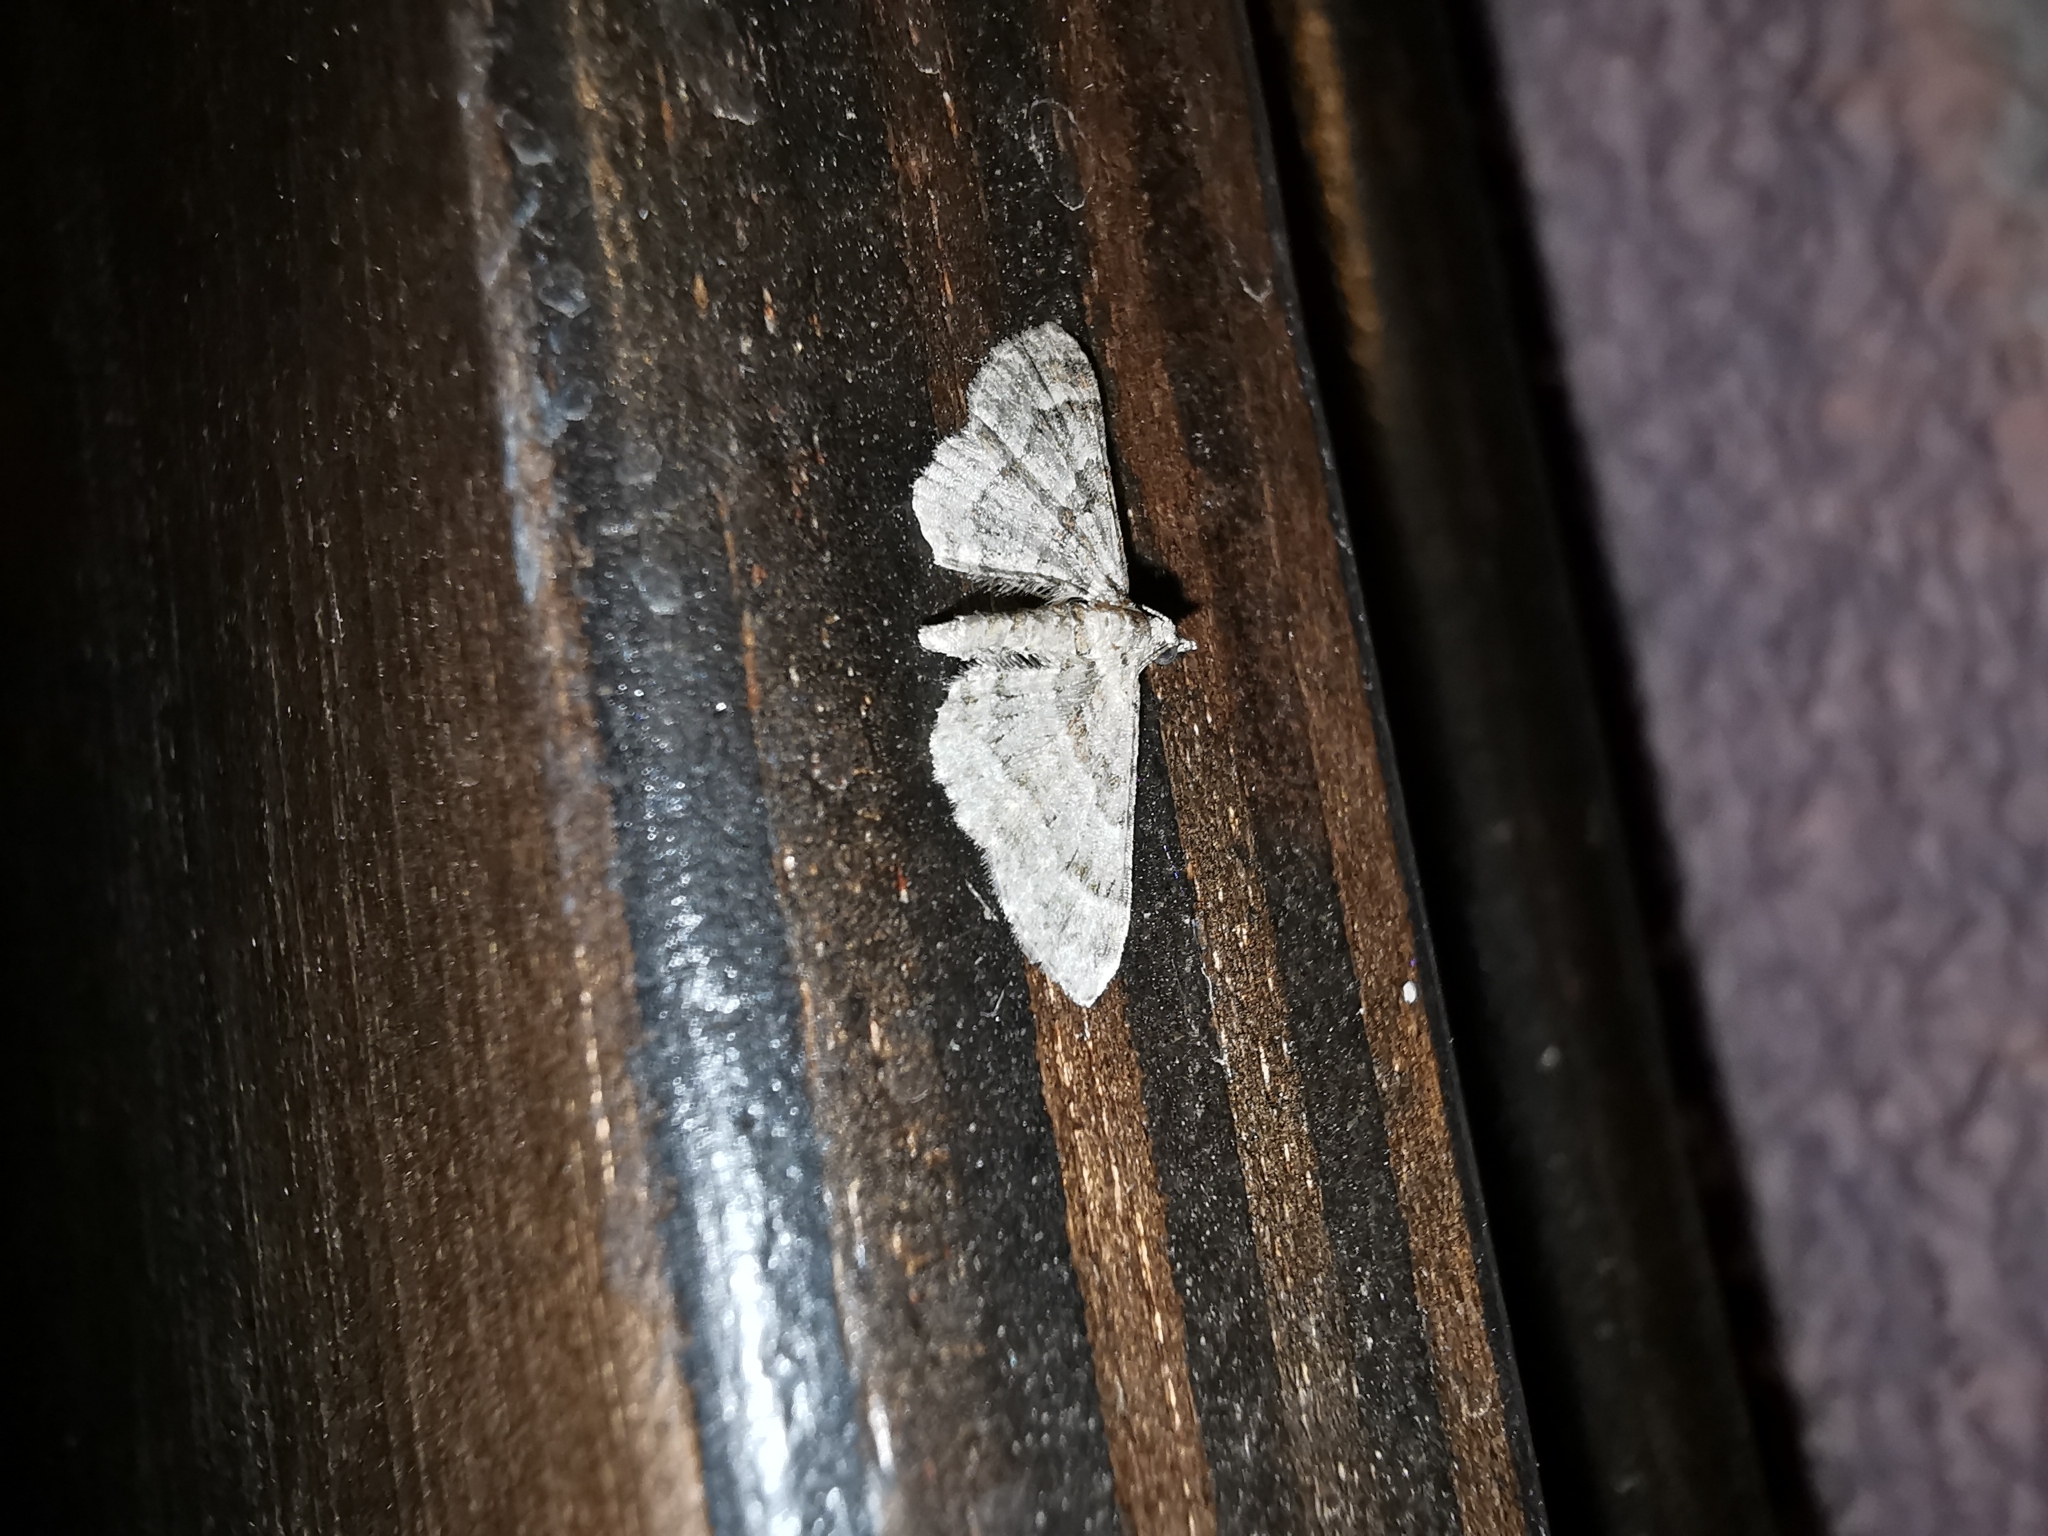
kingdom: Animalia
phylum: Arthropoda
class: Insecta
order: Lepidoptera
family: Geometridae
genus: Gymnoscelis
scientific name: Gymnoscelis rufifasciata
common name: Double-striped pug
